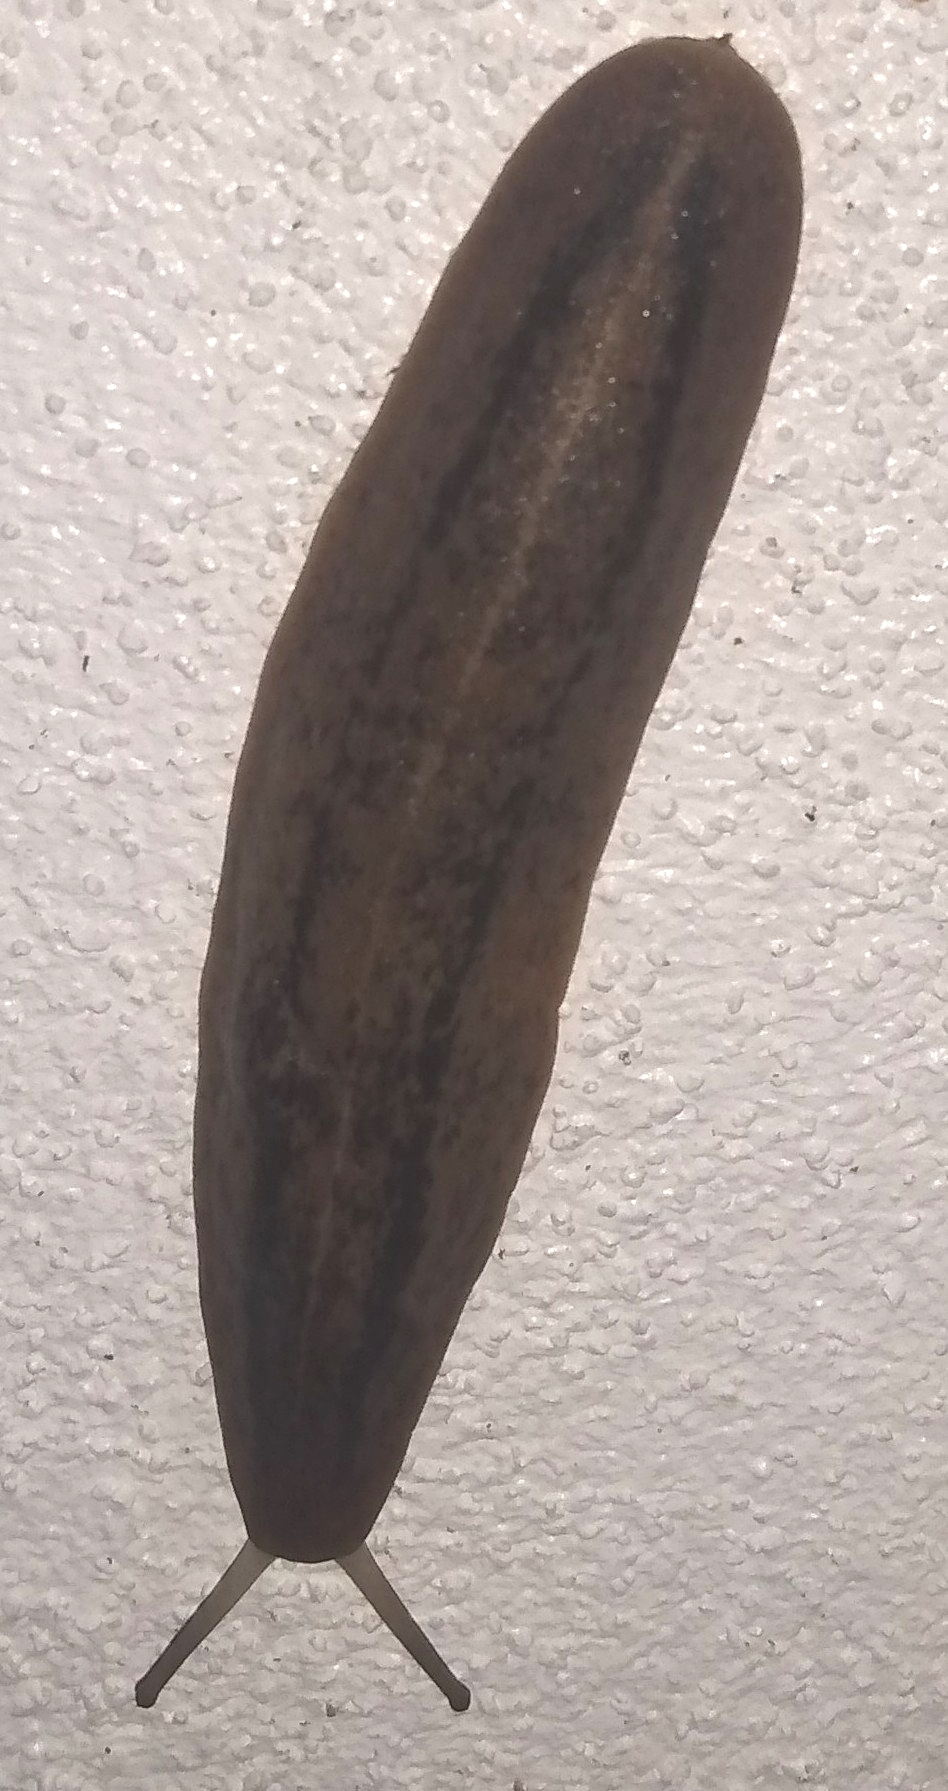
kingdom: Animalia
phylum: Mollusca
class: Gastropoda
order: Systellommatophora
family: Veronicellidae
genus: Leidyula
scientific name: Leidyula floridana
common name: Florida leatherleaf
